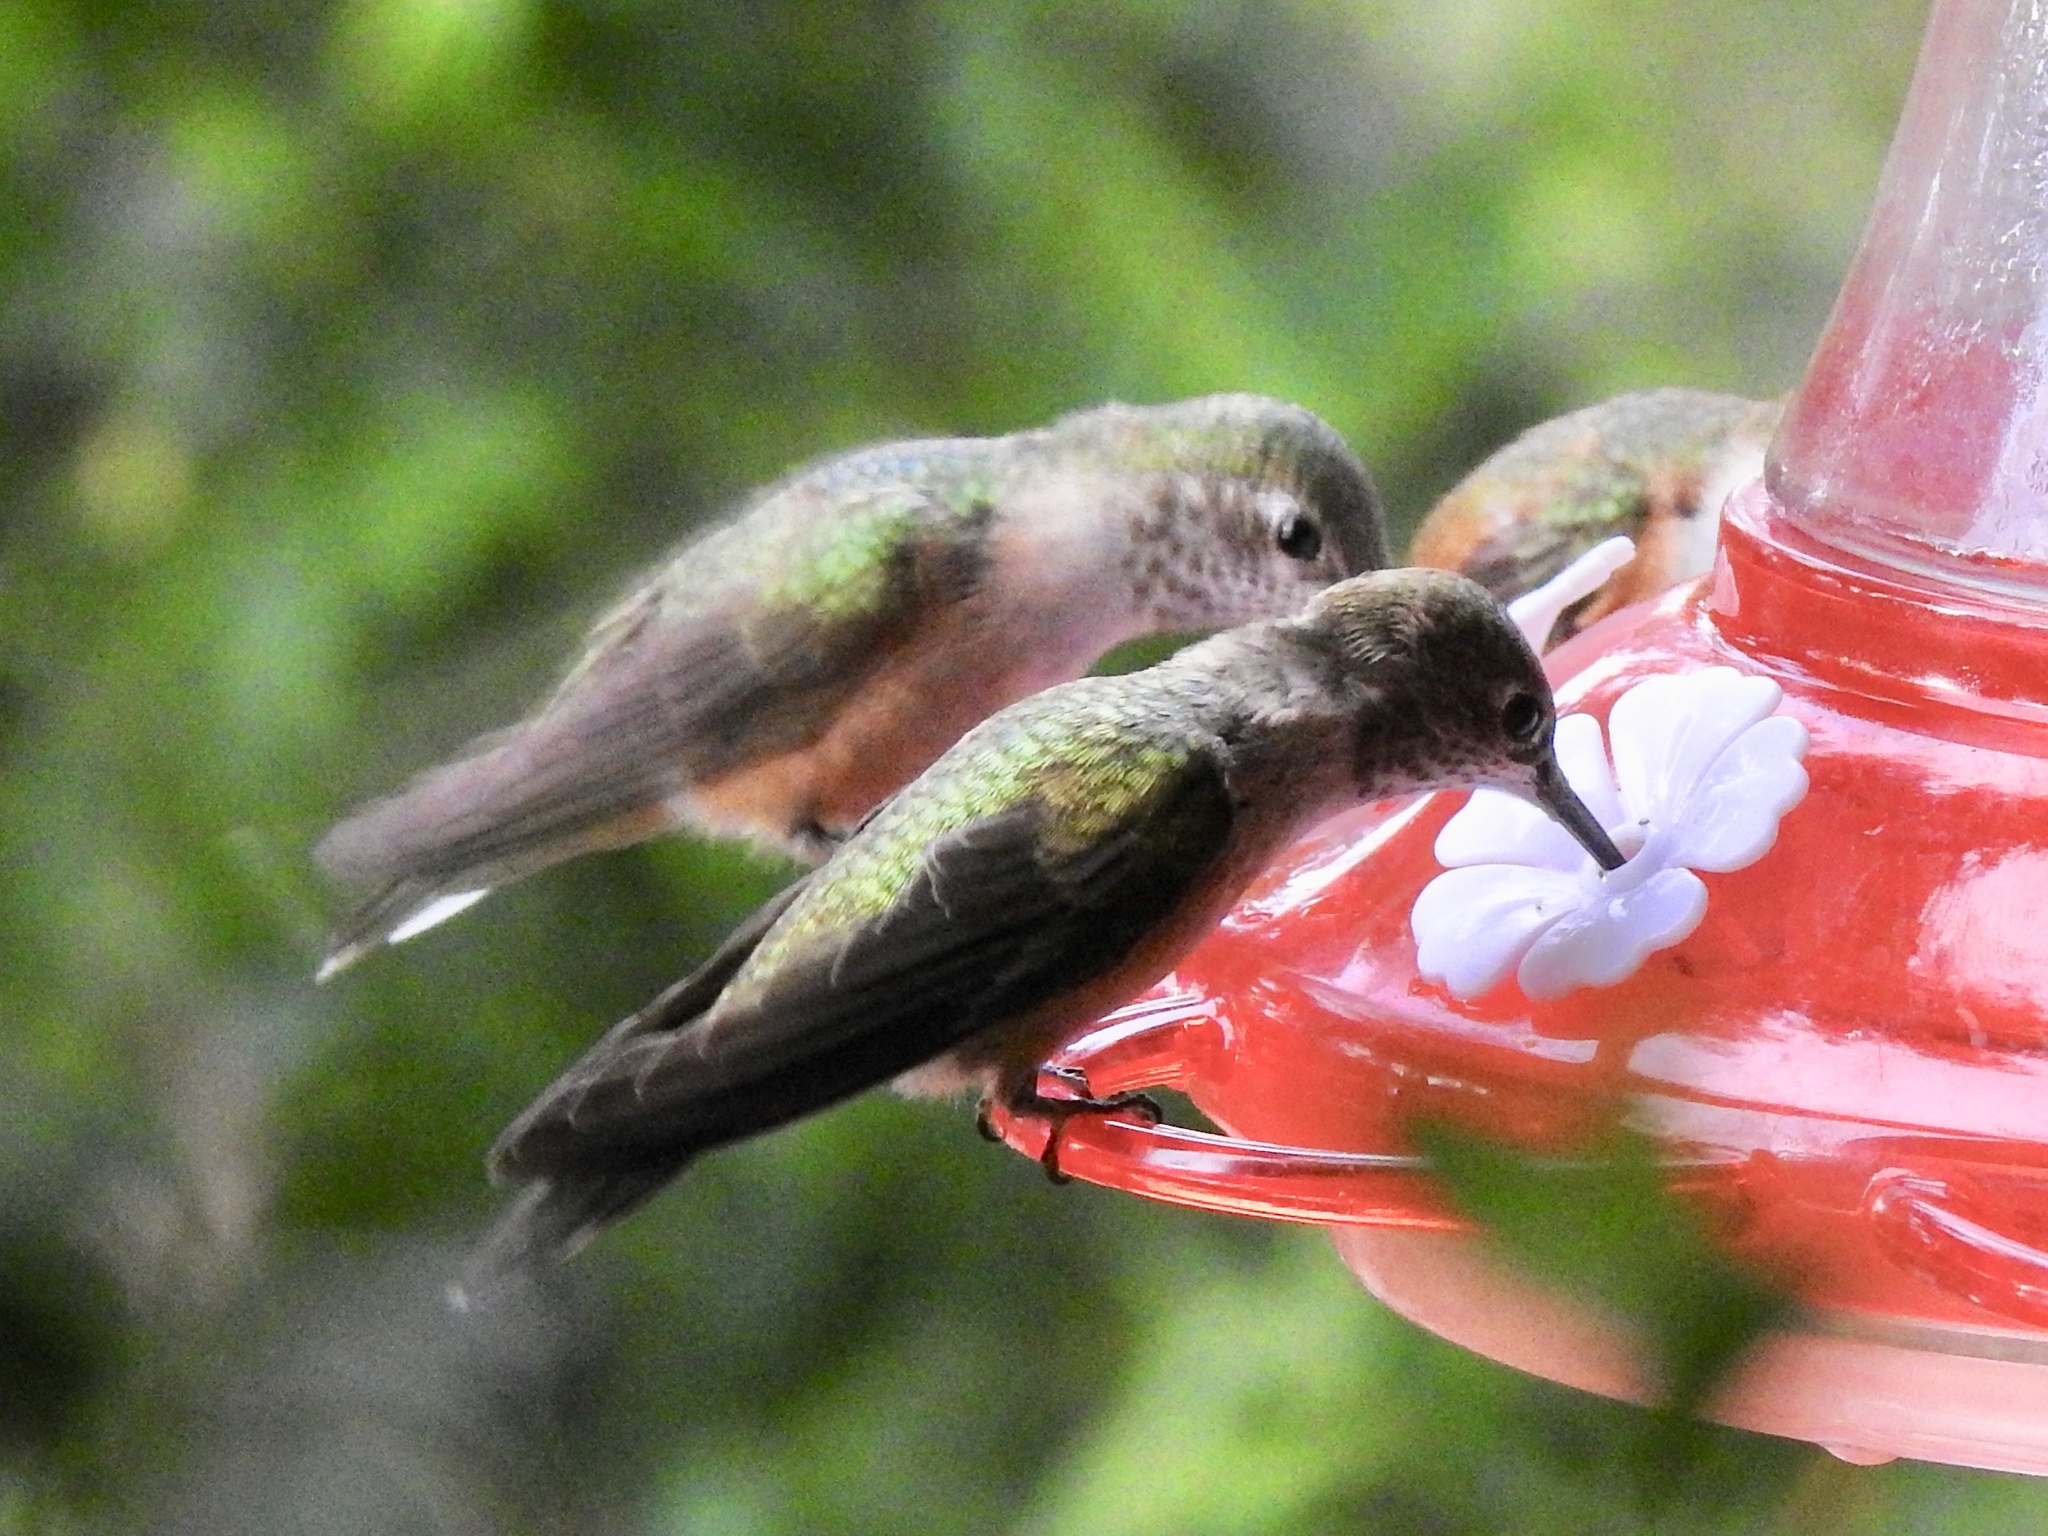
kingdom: Animalia
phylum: Chordata
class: Aves
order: Apodiformes
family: Trochilidae
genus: Selasphorus
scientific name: Selasphorus platycercus
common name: Broad-tailed hummingbird
